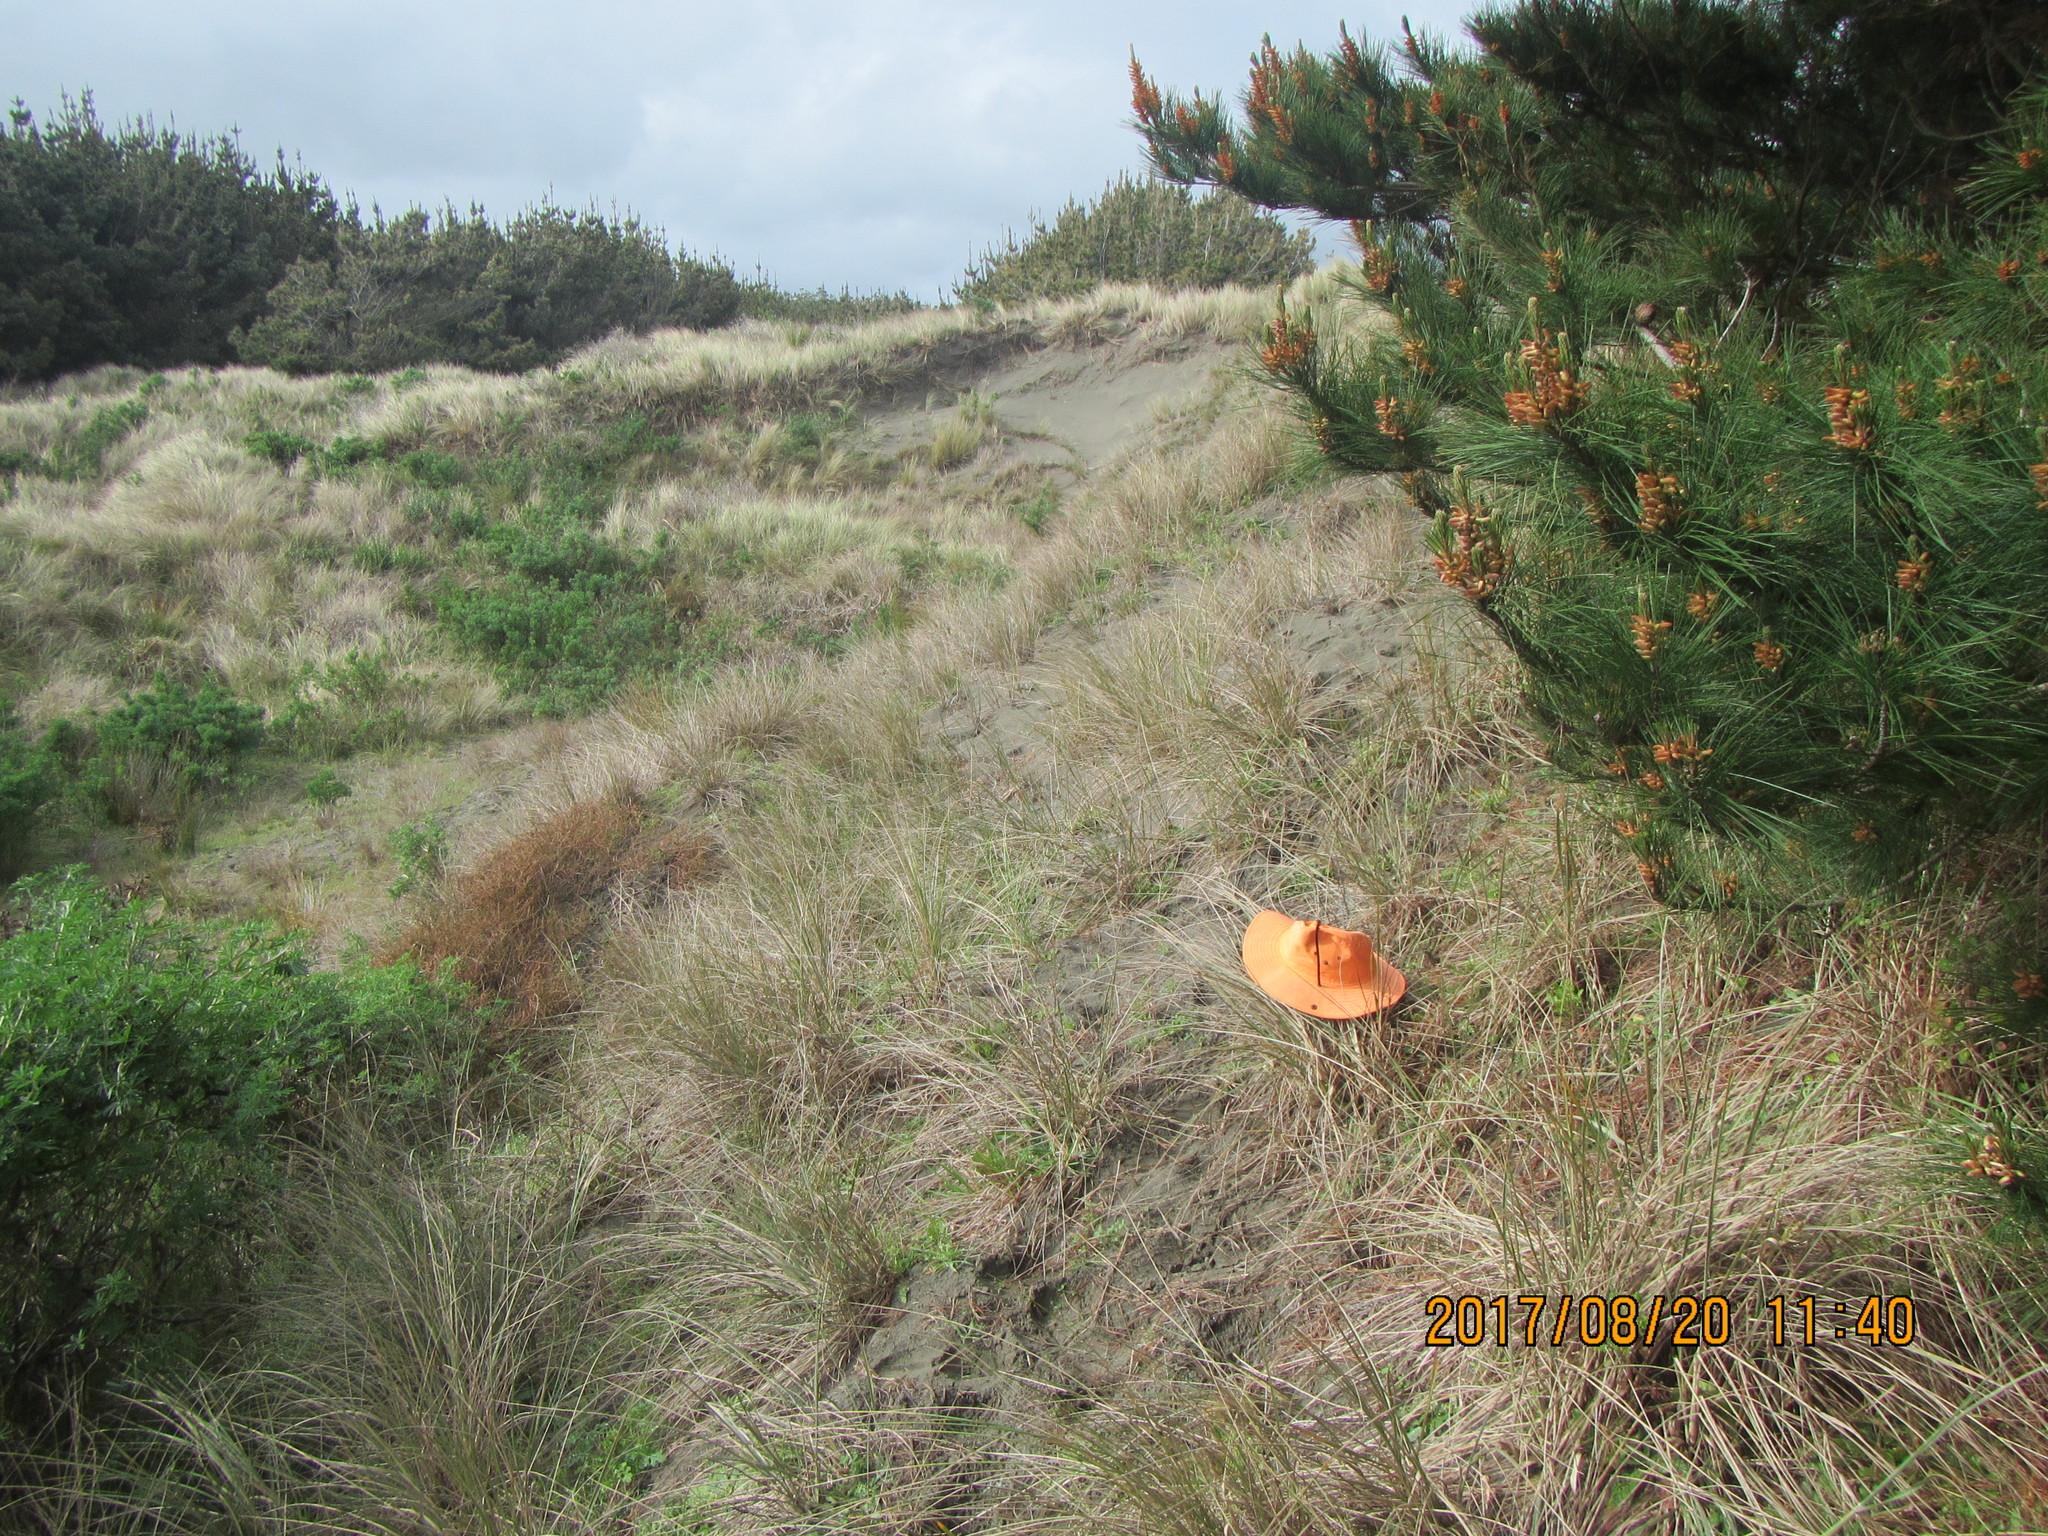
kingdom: Animalia
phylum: Platyhelminthes
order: Tricladida
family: Geoplanidae
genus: Caenoplana
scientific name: Caenoplana coerulea
